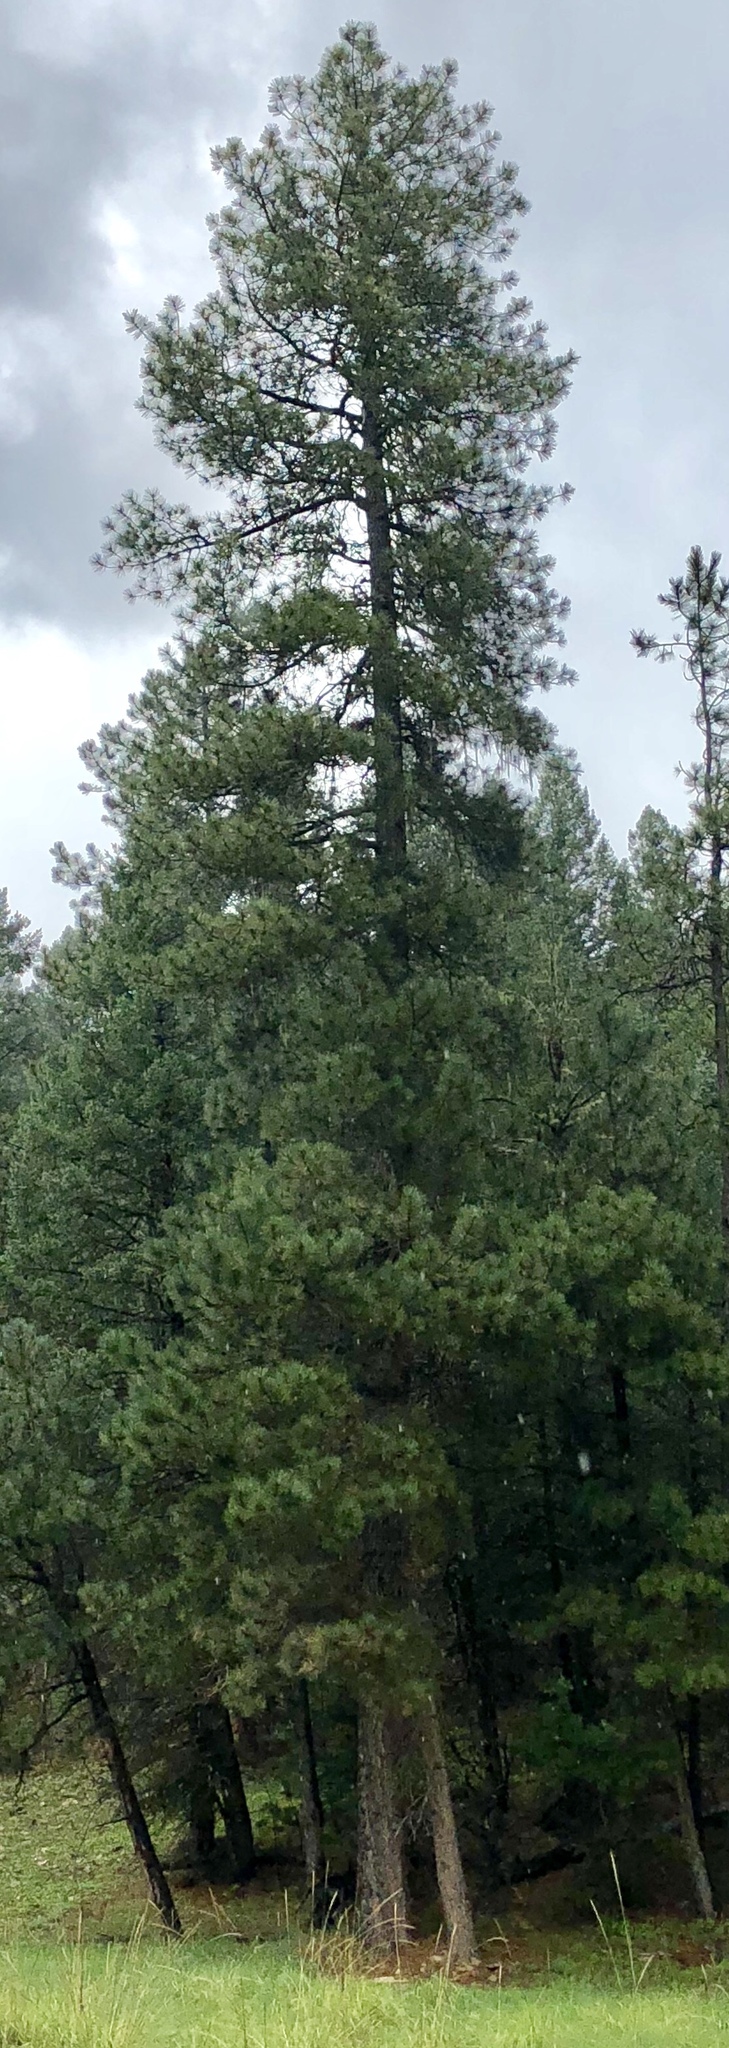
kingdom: Plantae
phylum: Tracheophyta
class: Pinopsida
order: Pinales
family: Pinaceae
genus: Pinus
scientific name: Pinus ponderosa
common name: Western yellow-pine
